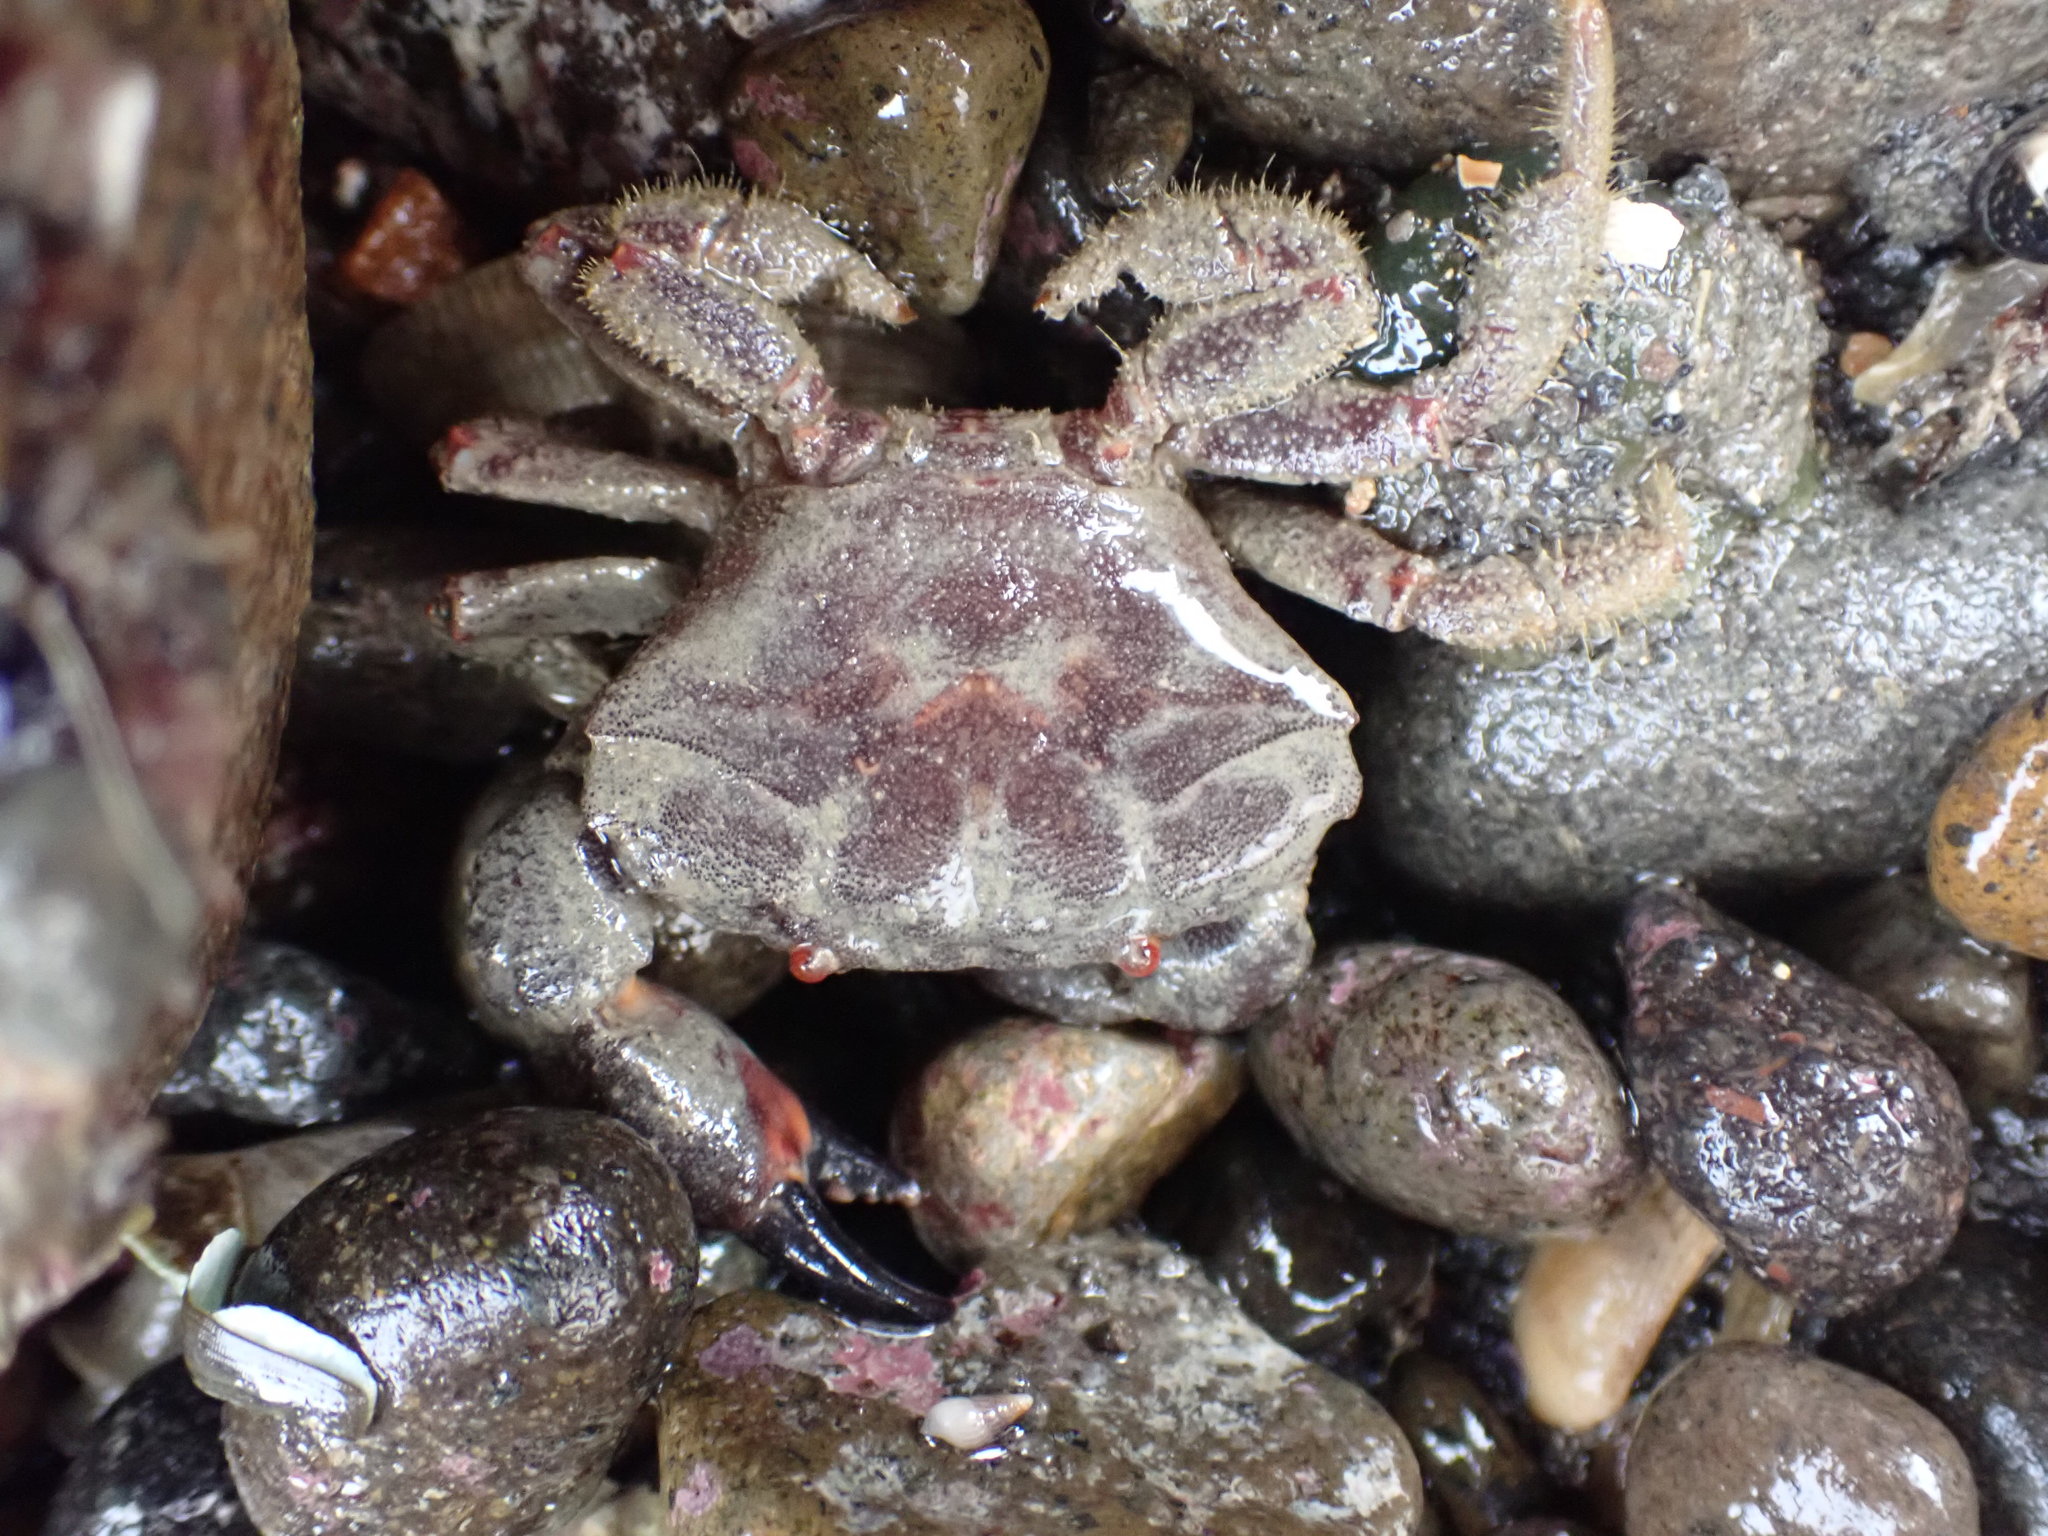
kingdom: Animalia
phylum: Arthropoda
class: Malacostraca
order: Decapoda
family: Oziidae
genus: Ozius
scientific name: Ozius deplanatus
